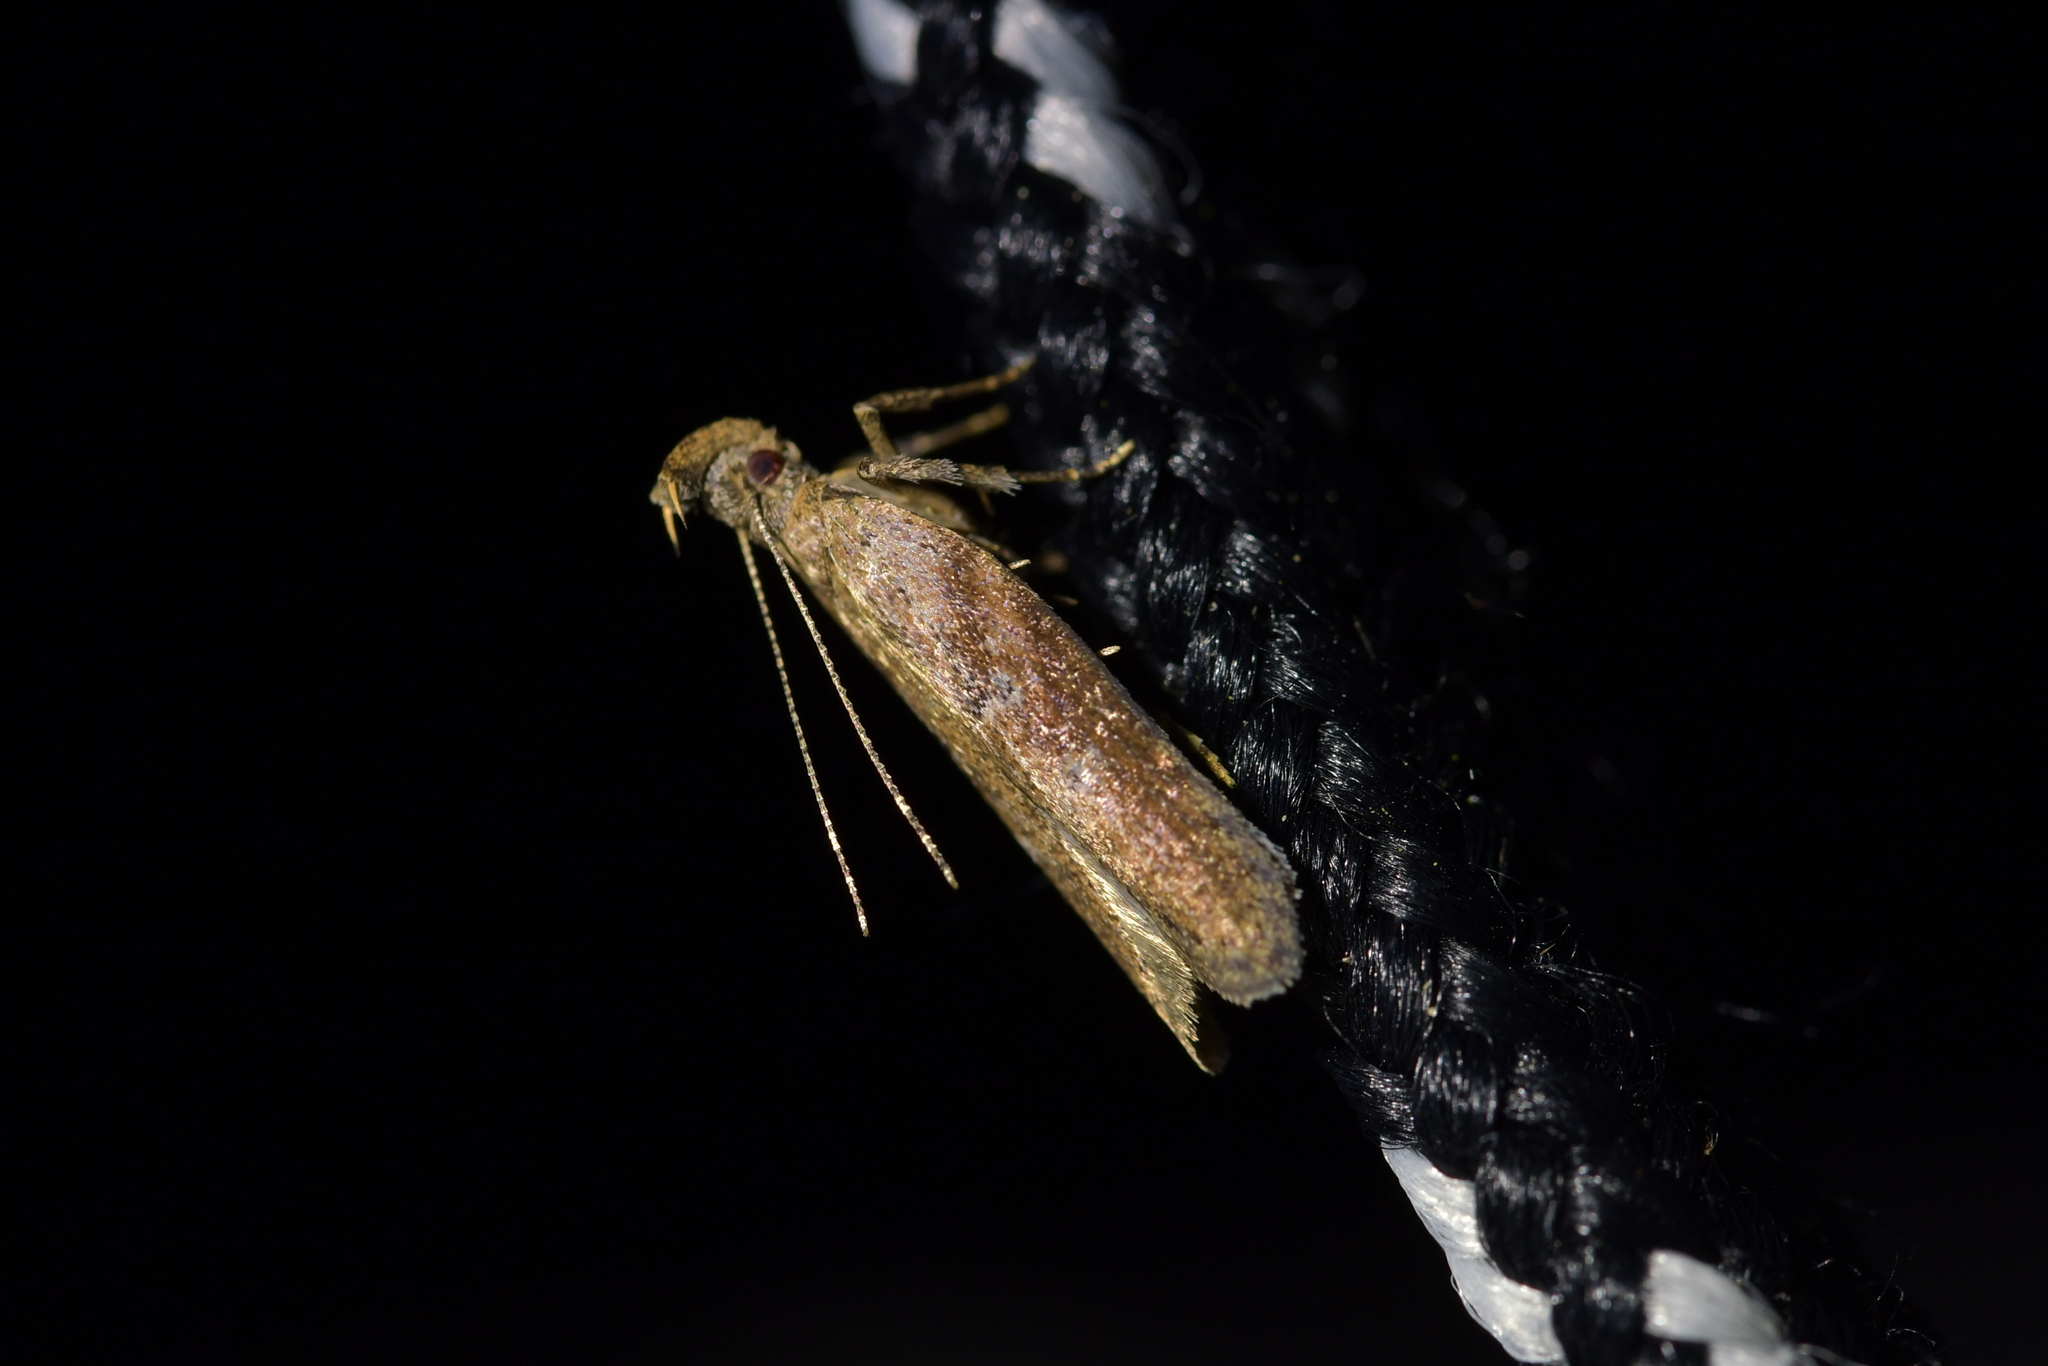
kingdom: Animalia
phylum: Arthropoda
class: Insecta
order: Lepidoptera
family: Depressariidae
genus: Eutorna
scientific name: Eutorna phaulocosma
